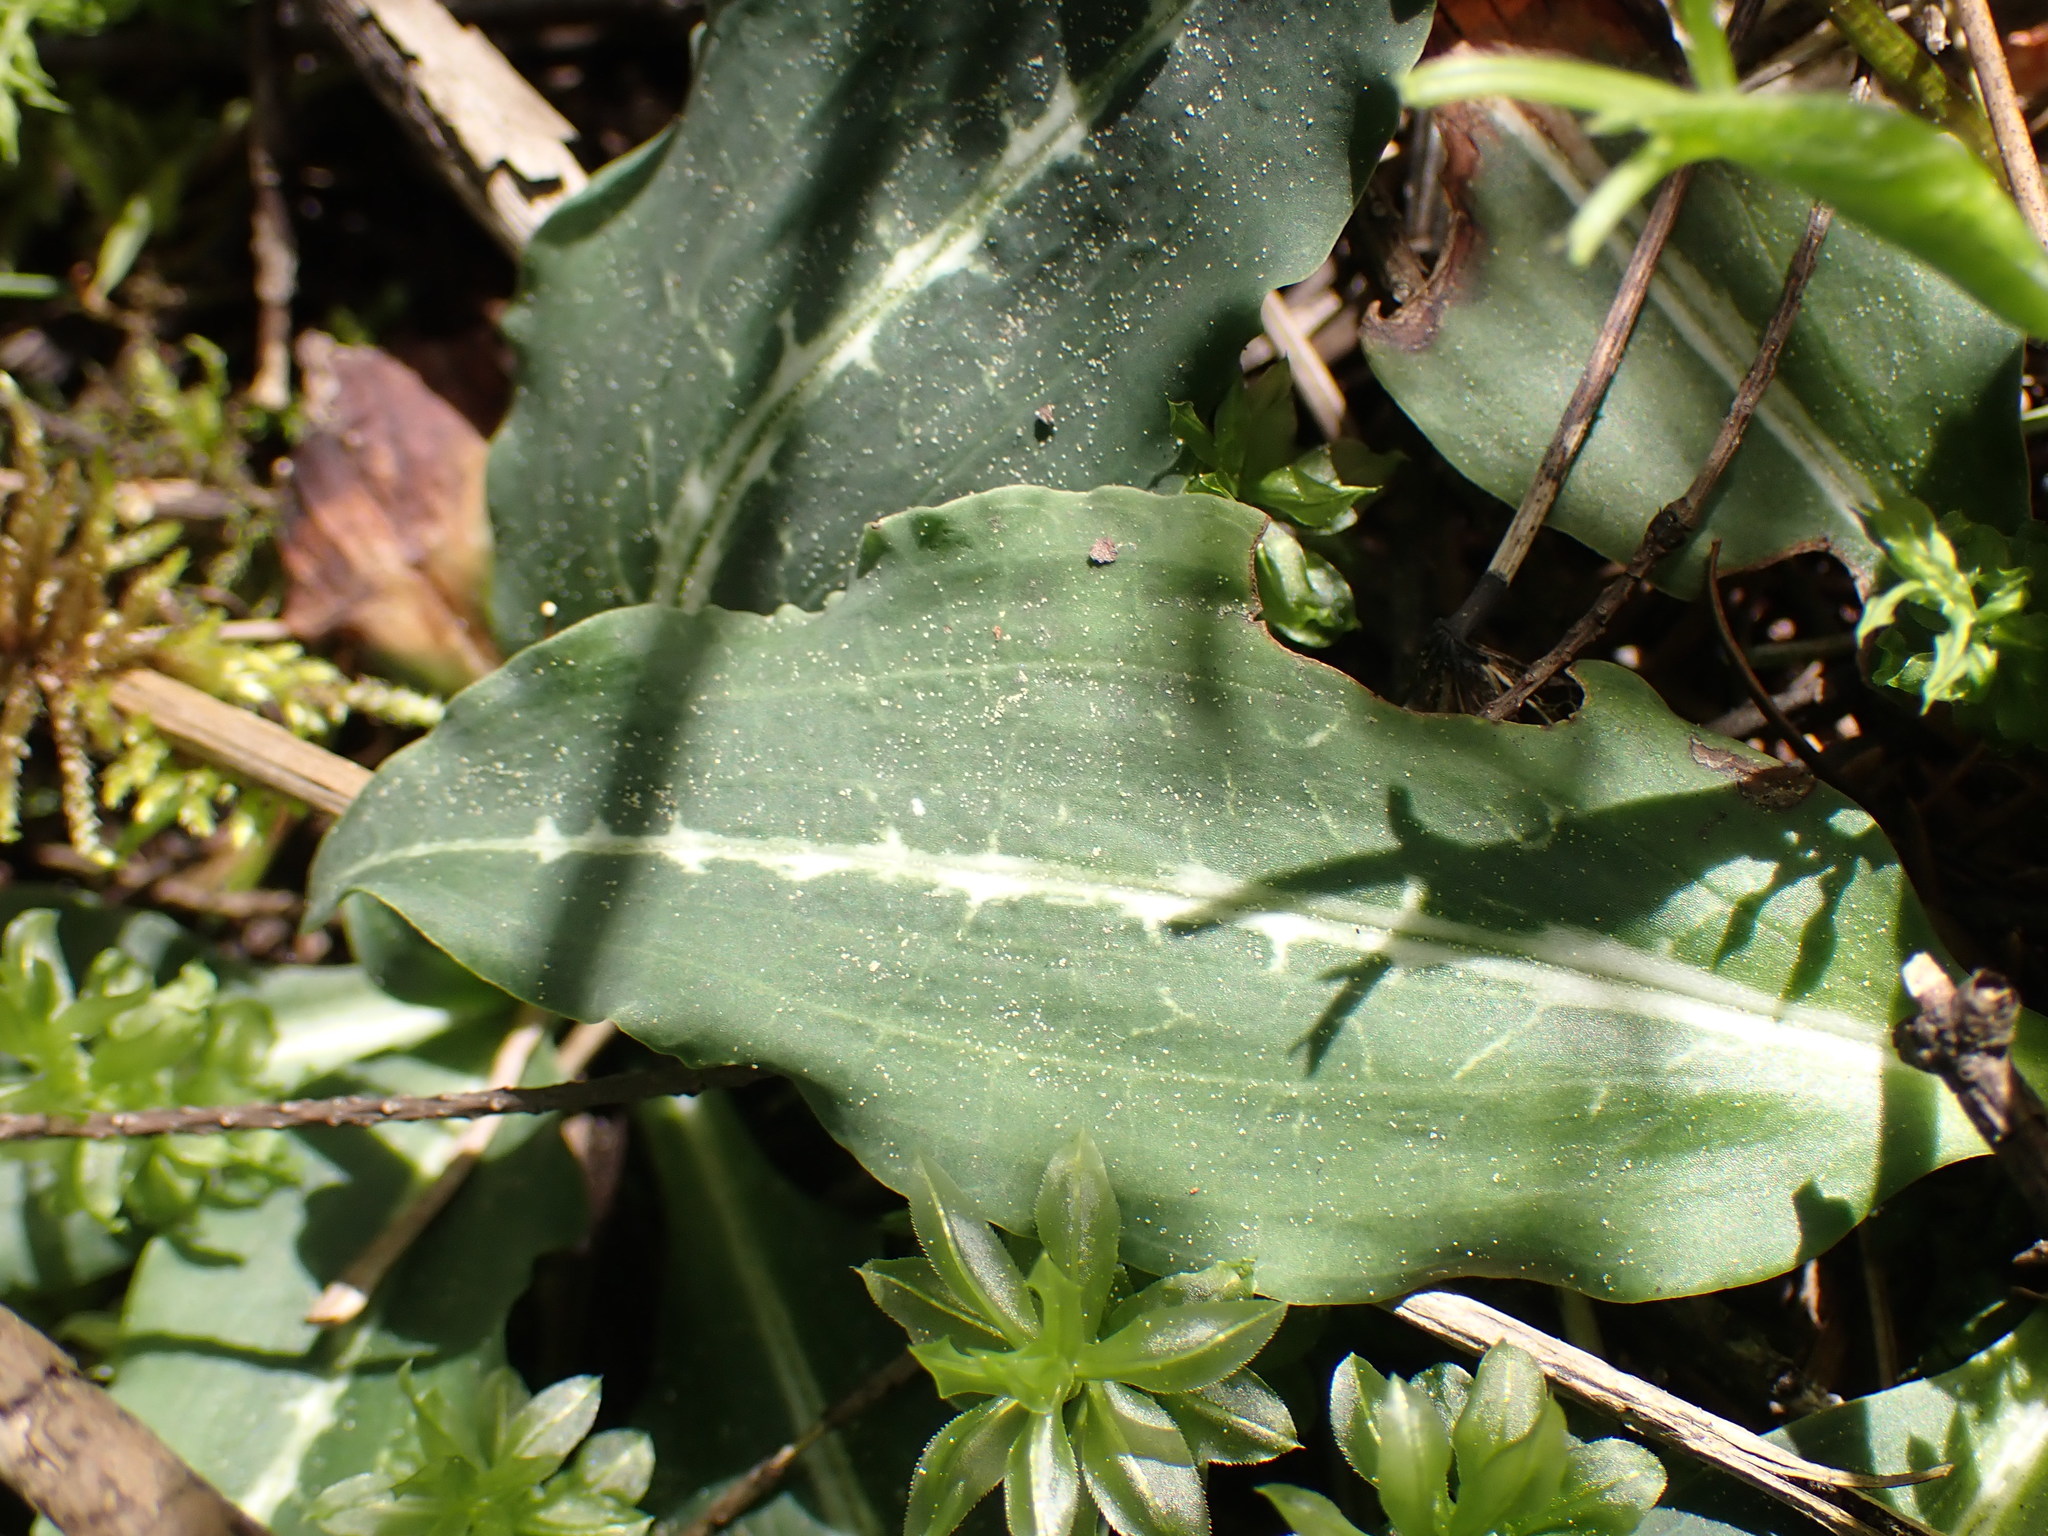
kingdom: Plantae
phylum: Tracheophyta
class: Liliopsida
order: Asparagales
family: Orchidaceae
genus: Goodyera
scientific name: Goodyera oblongifolia
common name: Giant rattlesnake-plantain
